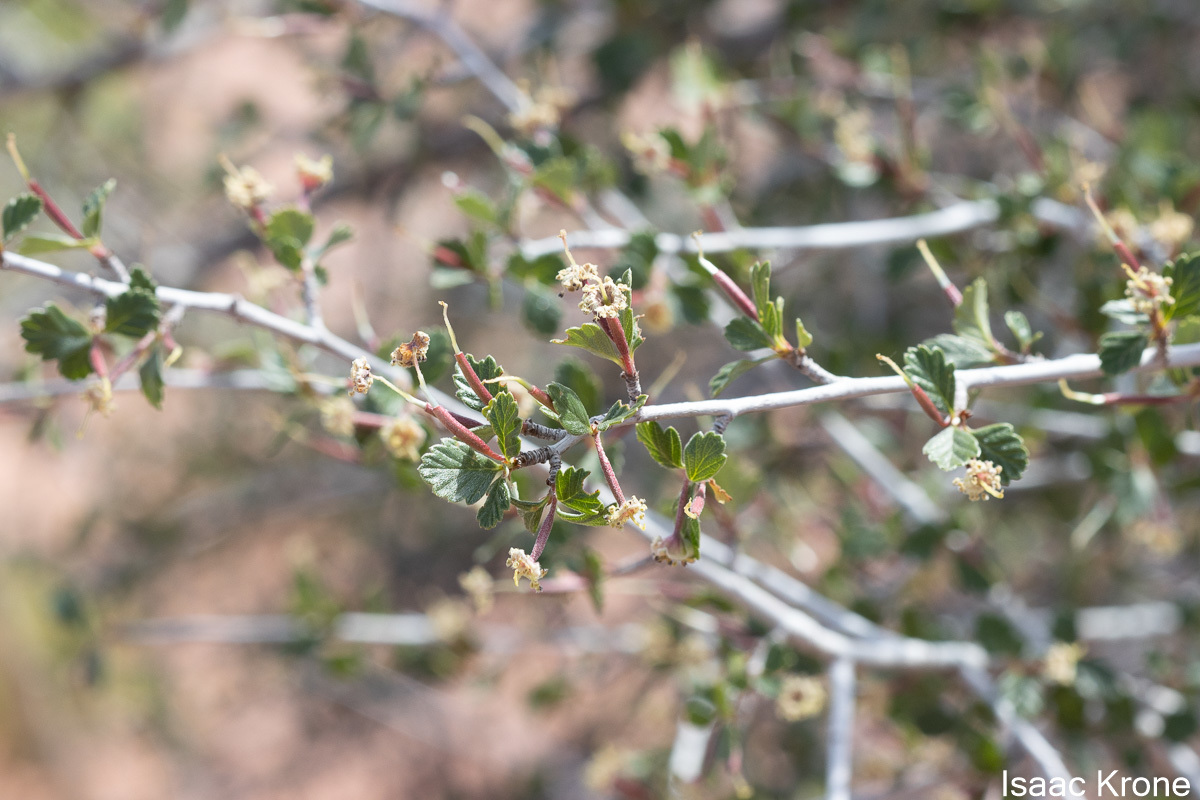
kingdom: Plantae
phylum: Tracheophyta
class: Magnoliopsida
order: Rosales
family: Rosaceae
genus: Cercocarpus
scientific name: Cercocarpus montanus
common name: Alder-leaf cercocarpus
